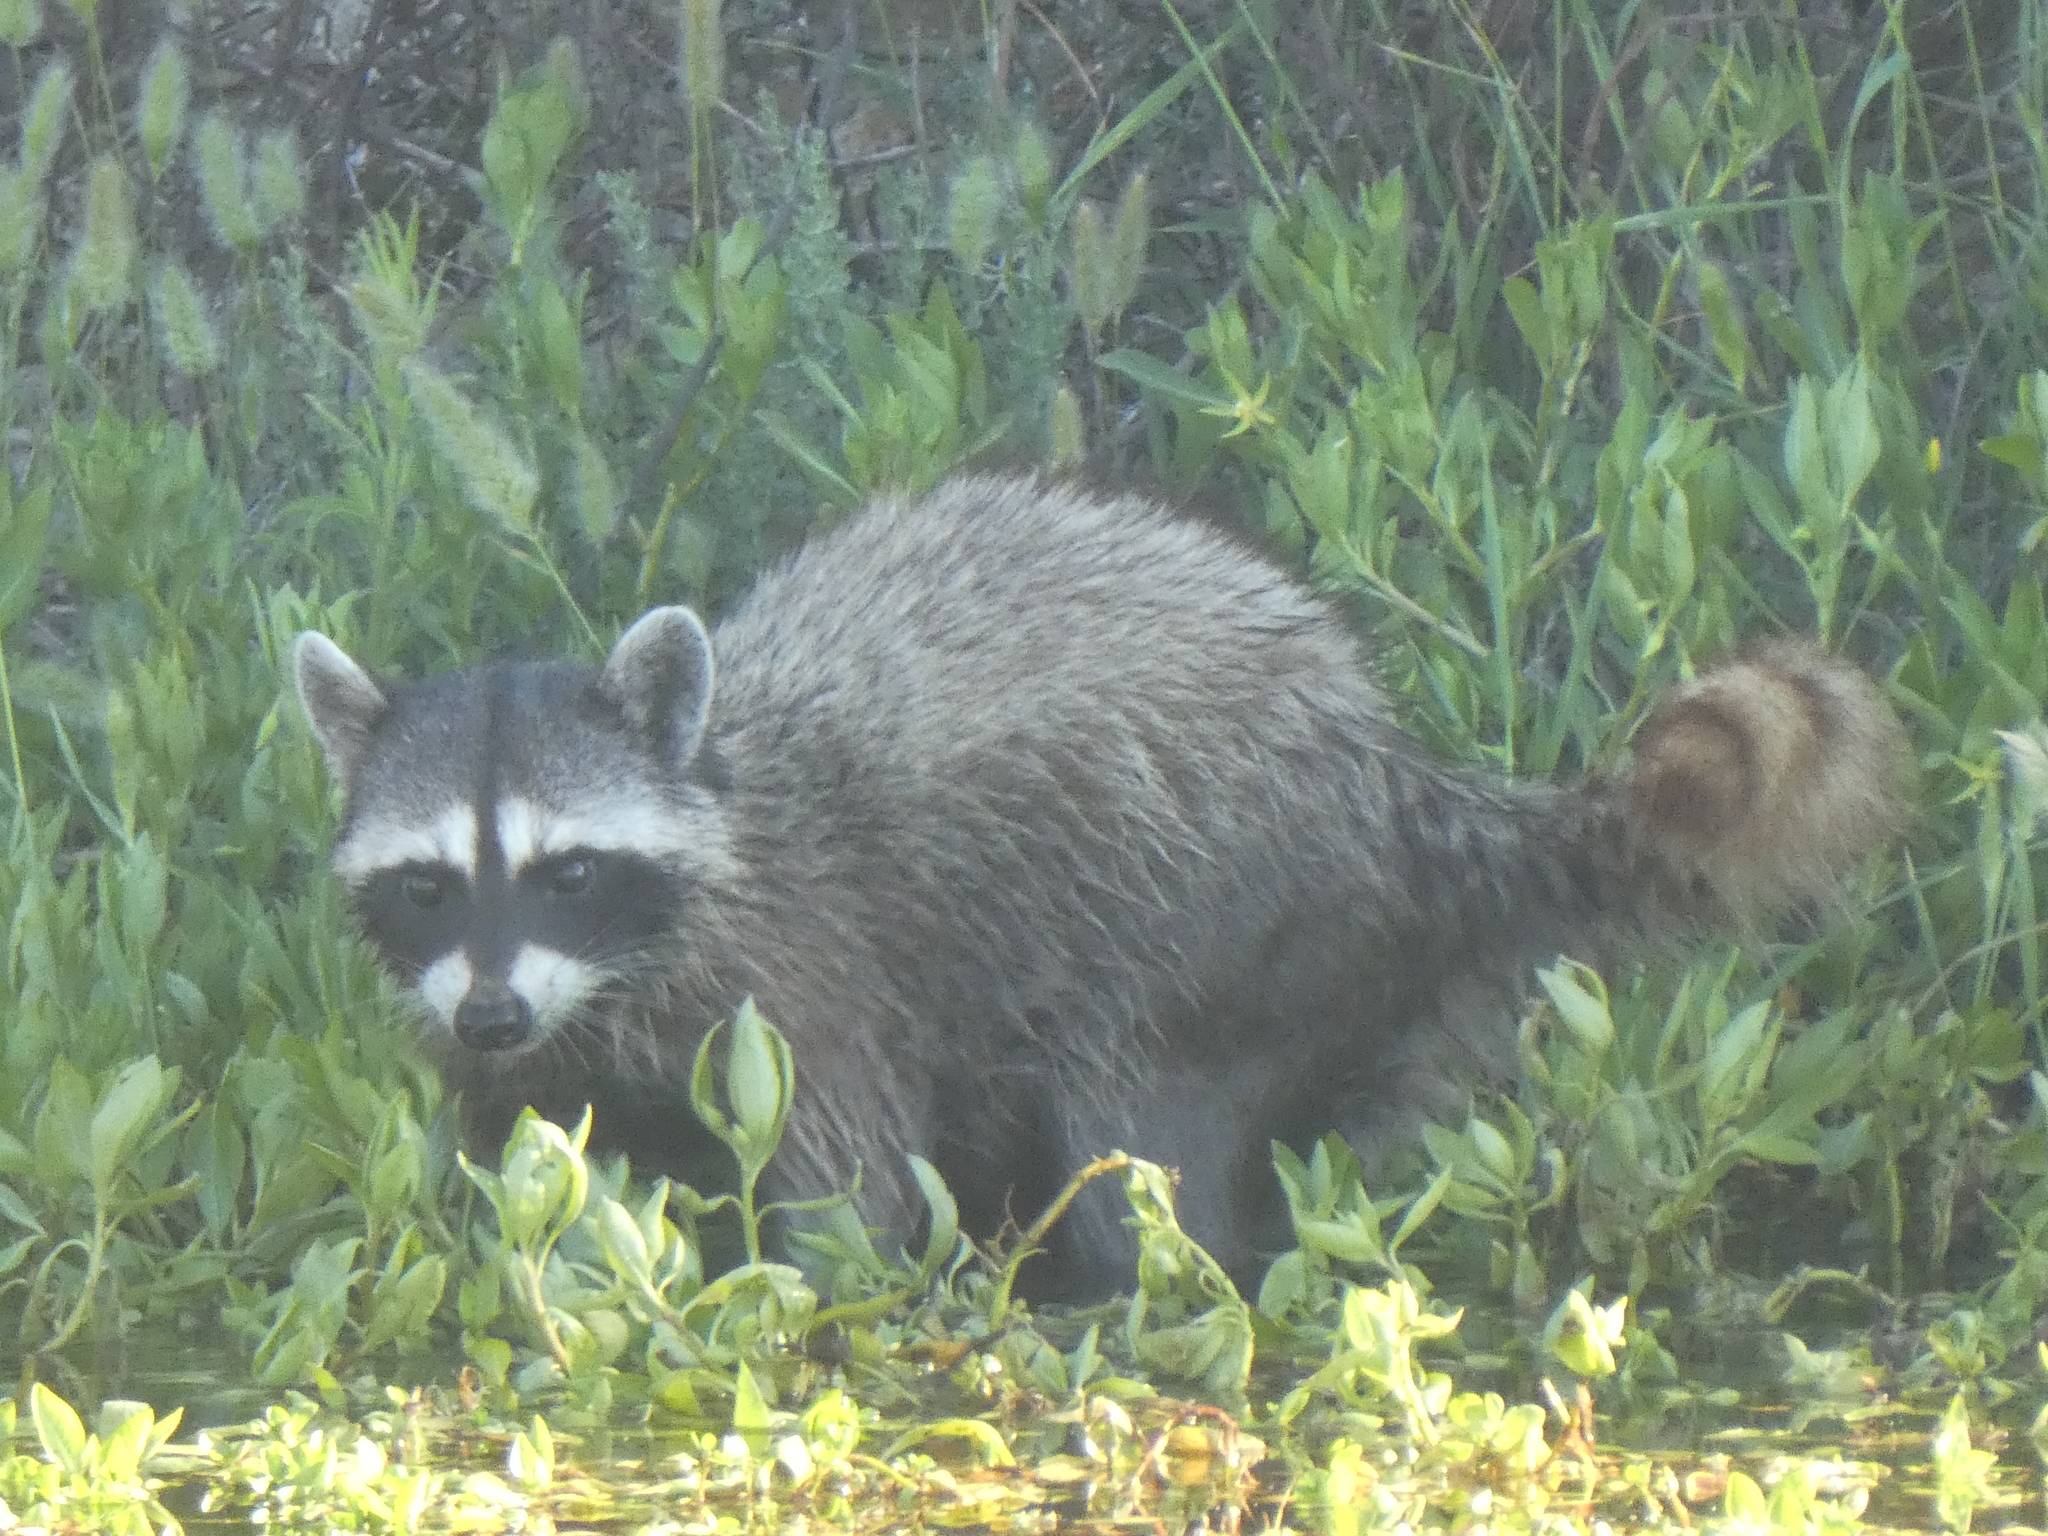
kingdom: Animalia
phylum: Chordata
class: Mammalia
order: Carnivora
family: Procyonidae
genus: Procyon
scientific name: Procyon lotor
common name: Raccoon
